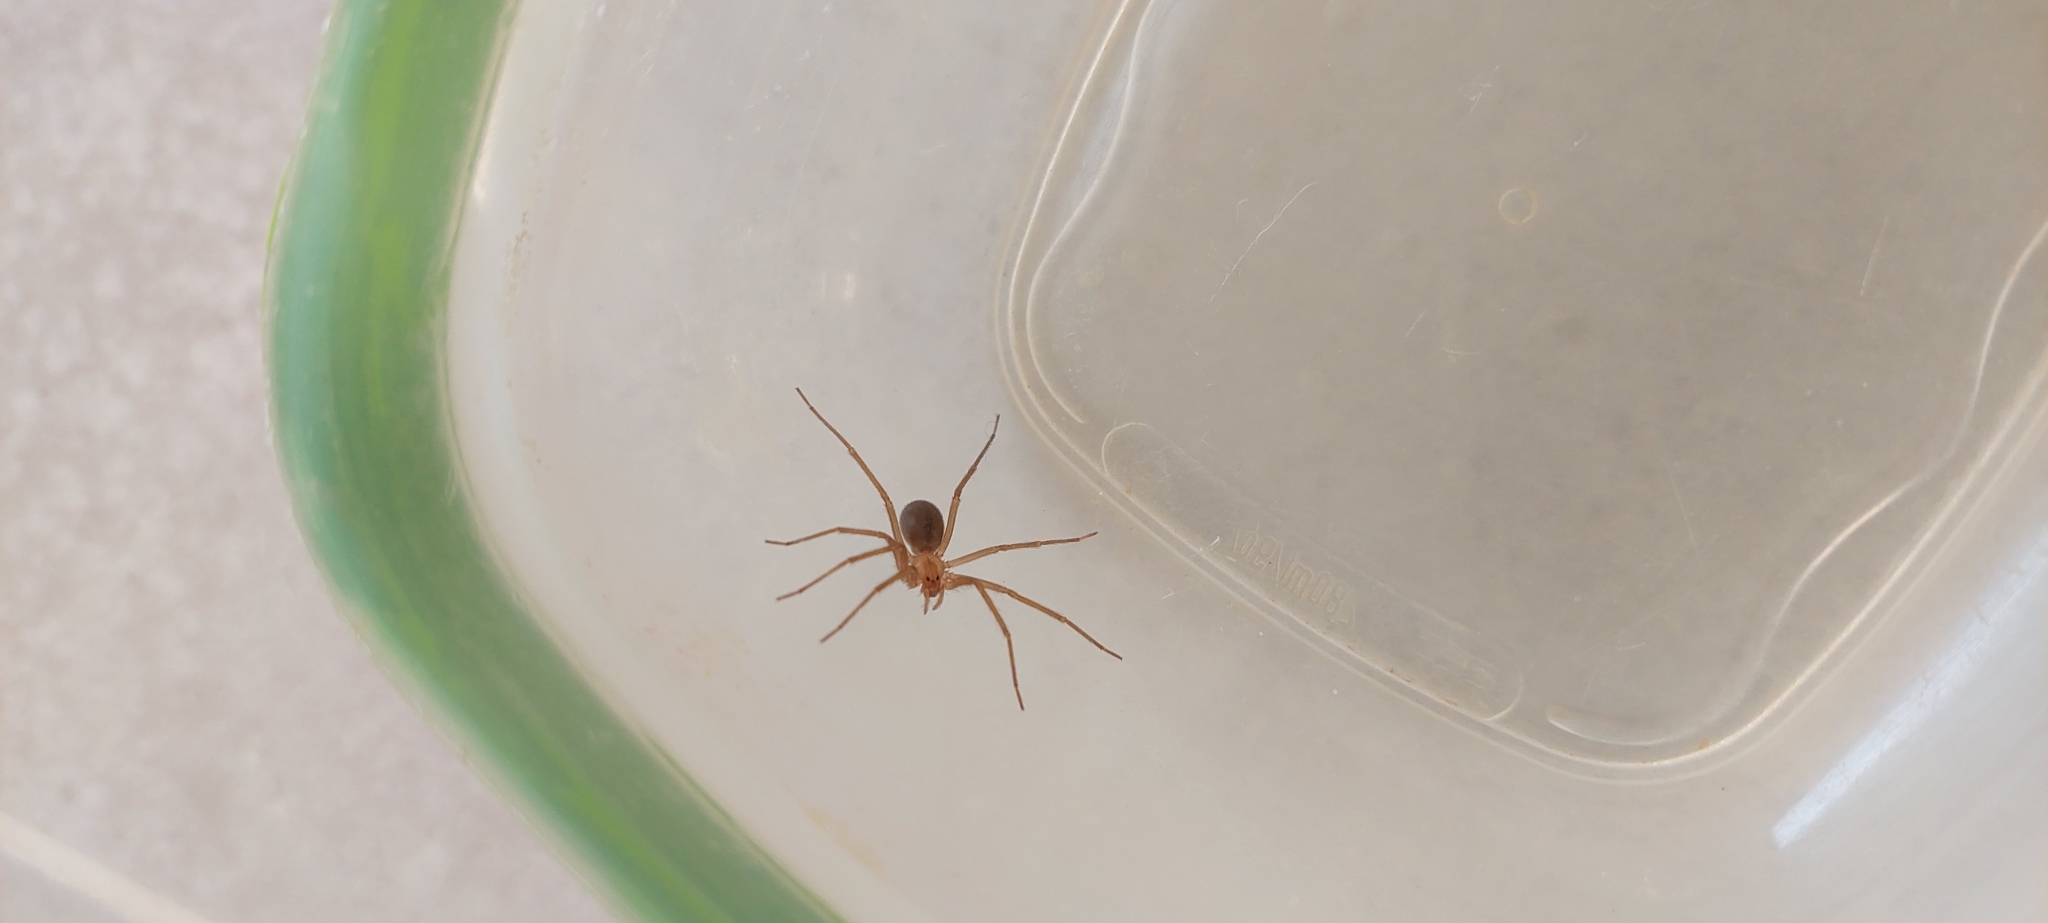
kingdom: Animalia
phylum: Arthropoda
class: Arachnida
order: Araneae
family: Sicariidae
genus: Loxosceles
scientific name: Loxosceles laeta
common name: Chilean recluse spider
